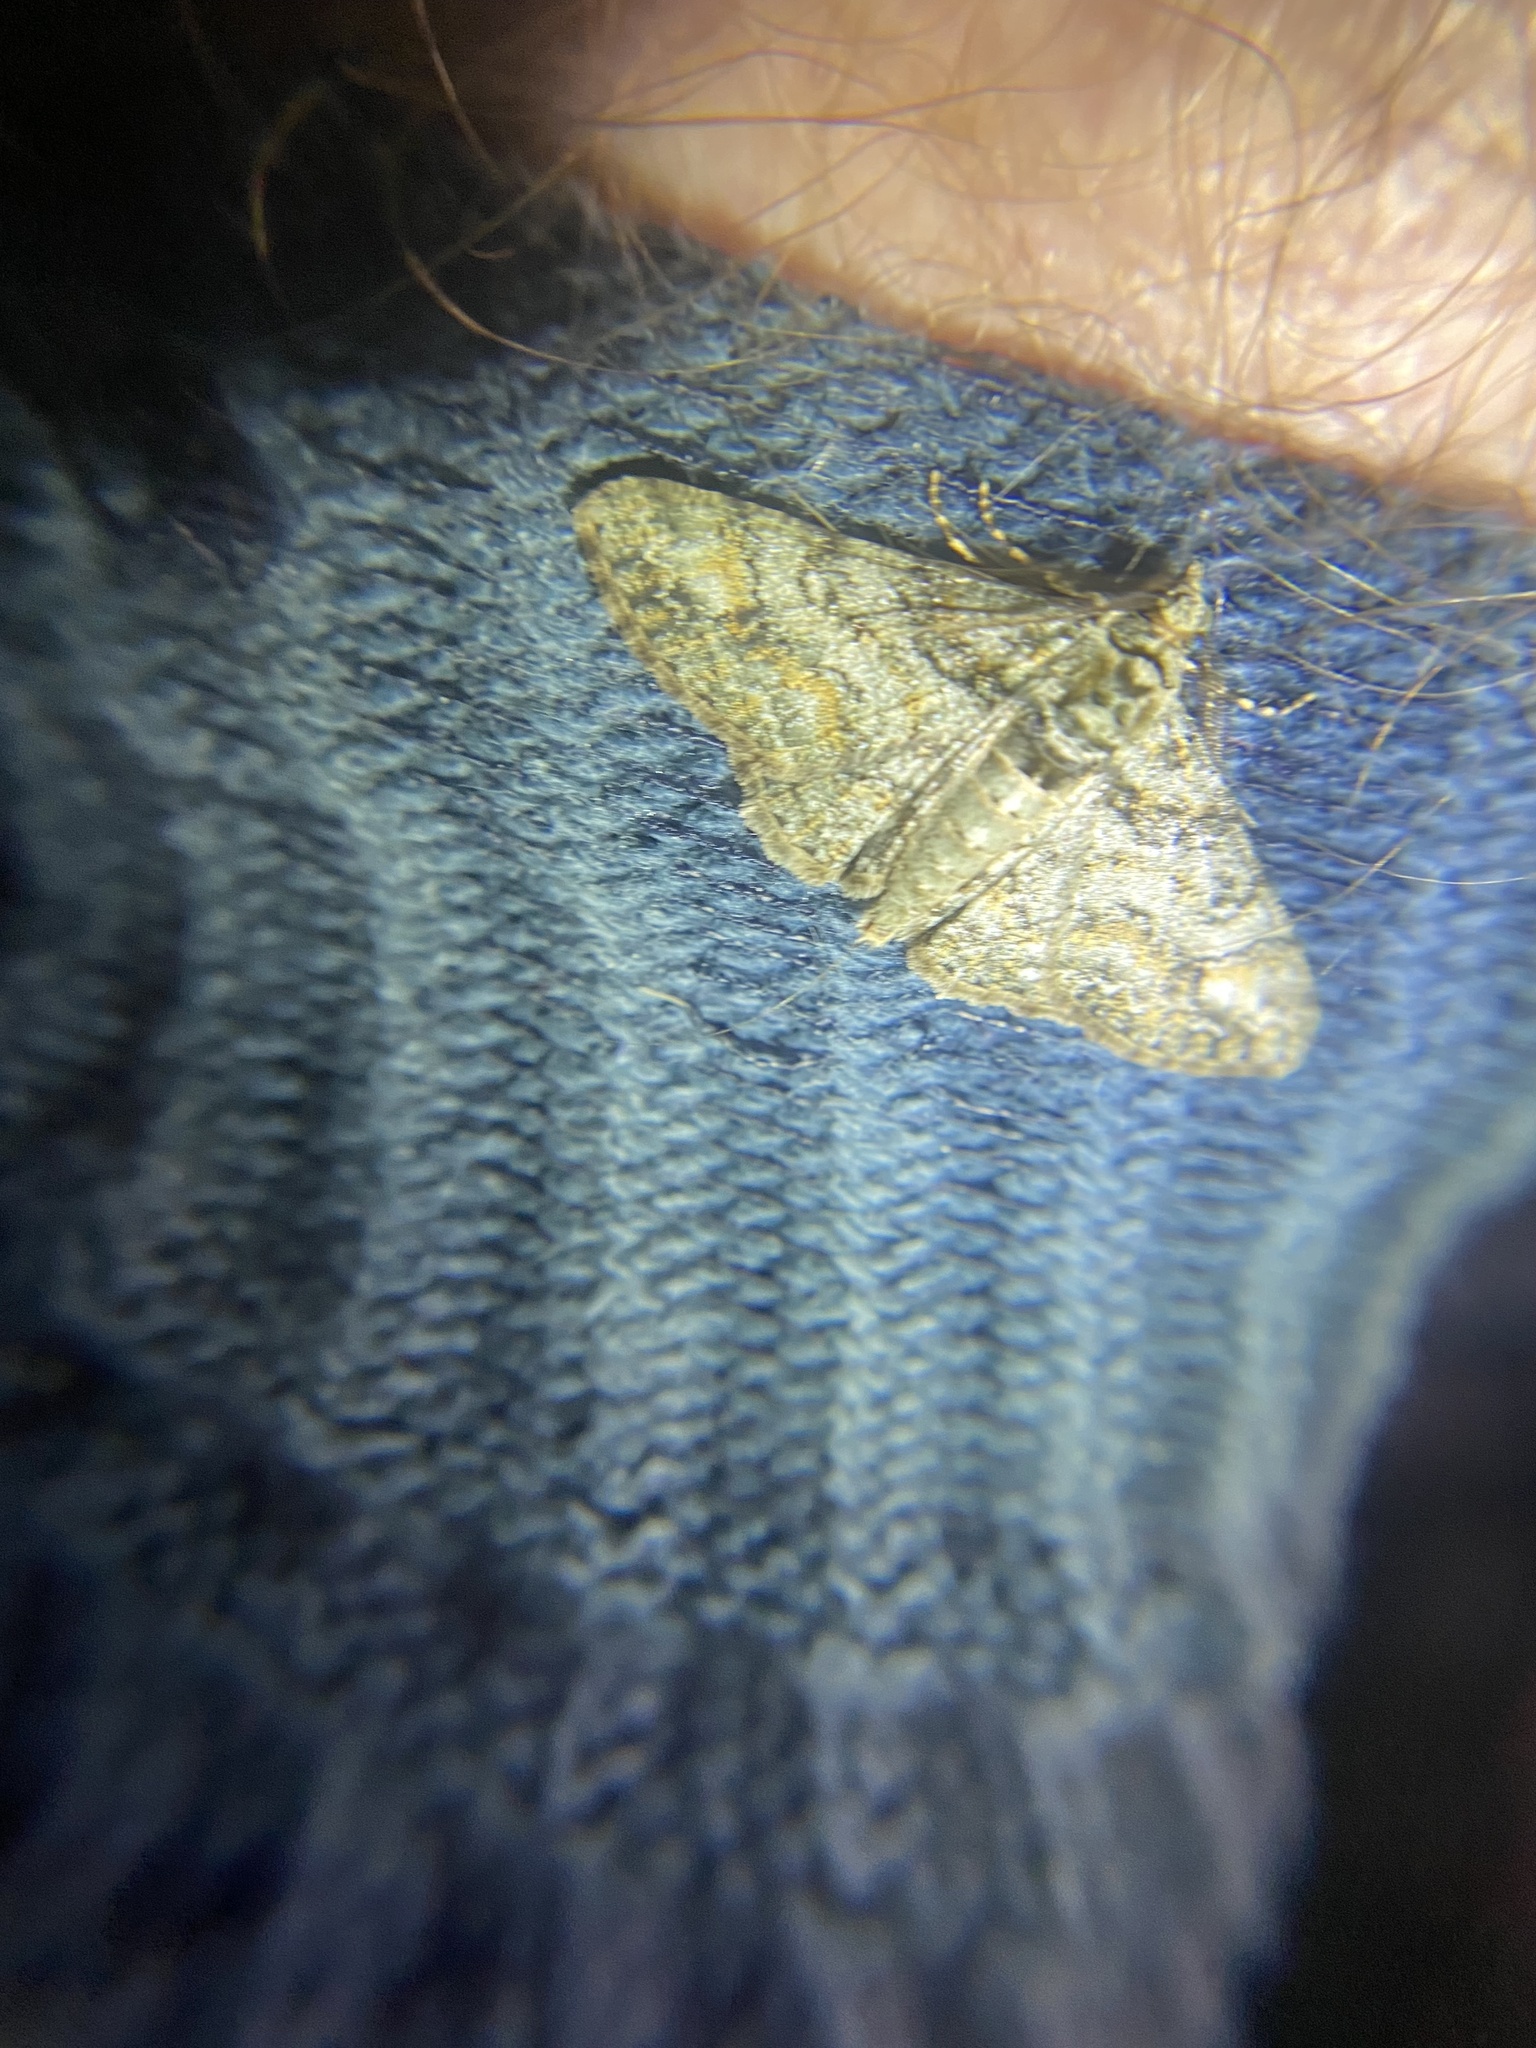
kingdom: Animalia
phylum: Arthropoda
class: Insecta
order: Lepidoptera
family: Geometridae
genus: Cleora
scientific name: Cleora sublunaria
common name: Double-lined gray
